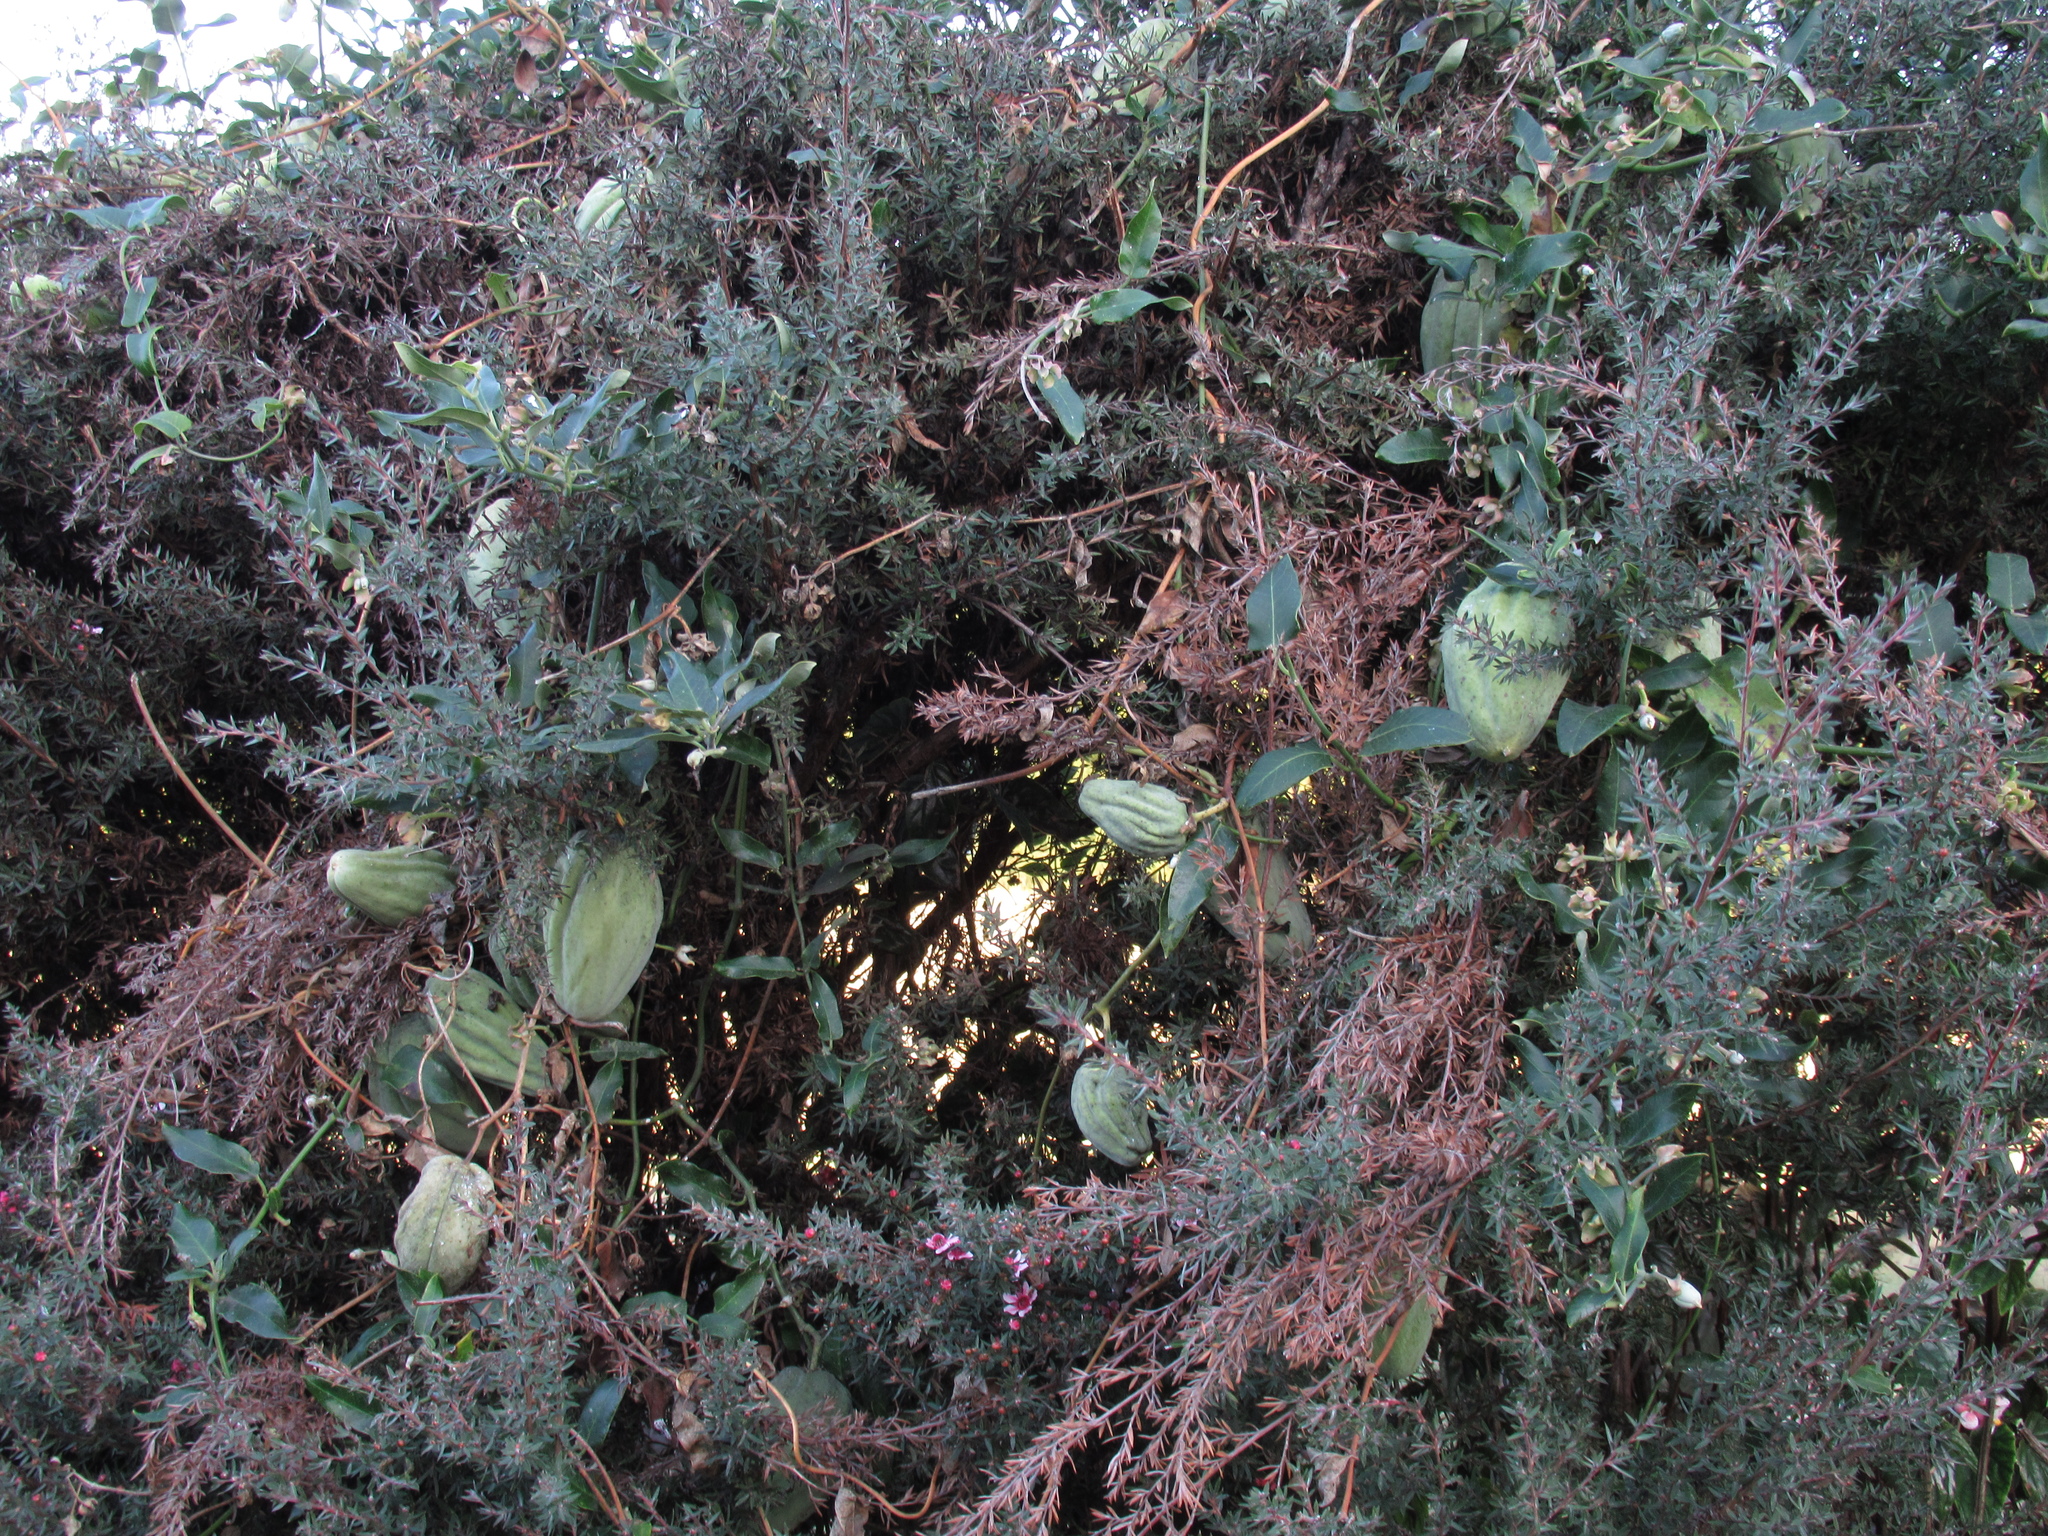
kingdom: Plantae
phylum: Tracheophyta
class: Magnoliopsida
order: Gentianales
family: Apocynaceae
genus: Araujia
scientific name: Araujia sericifera
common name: White bladderflower
